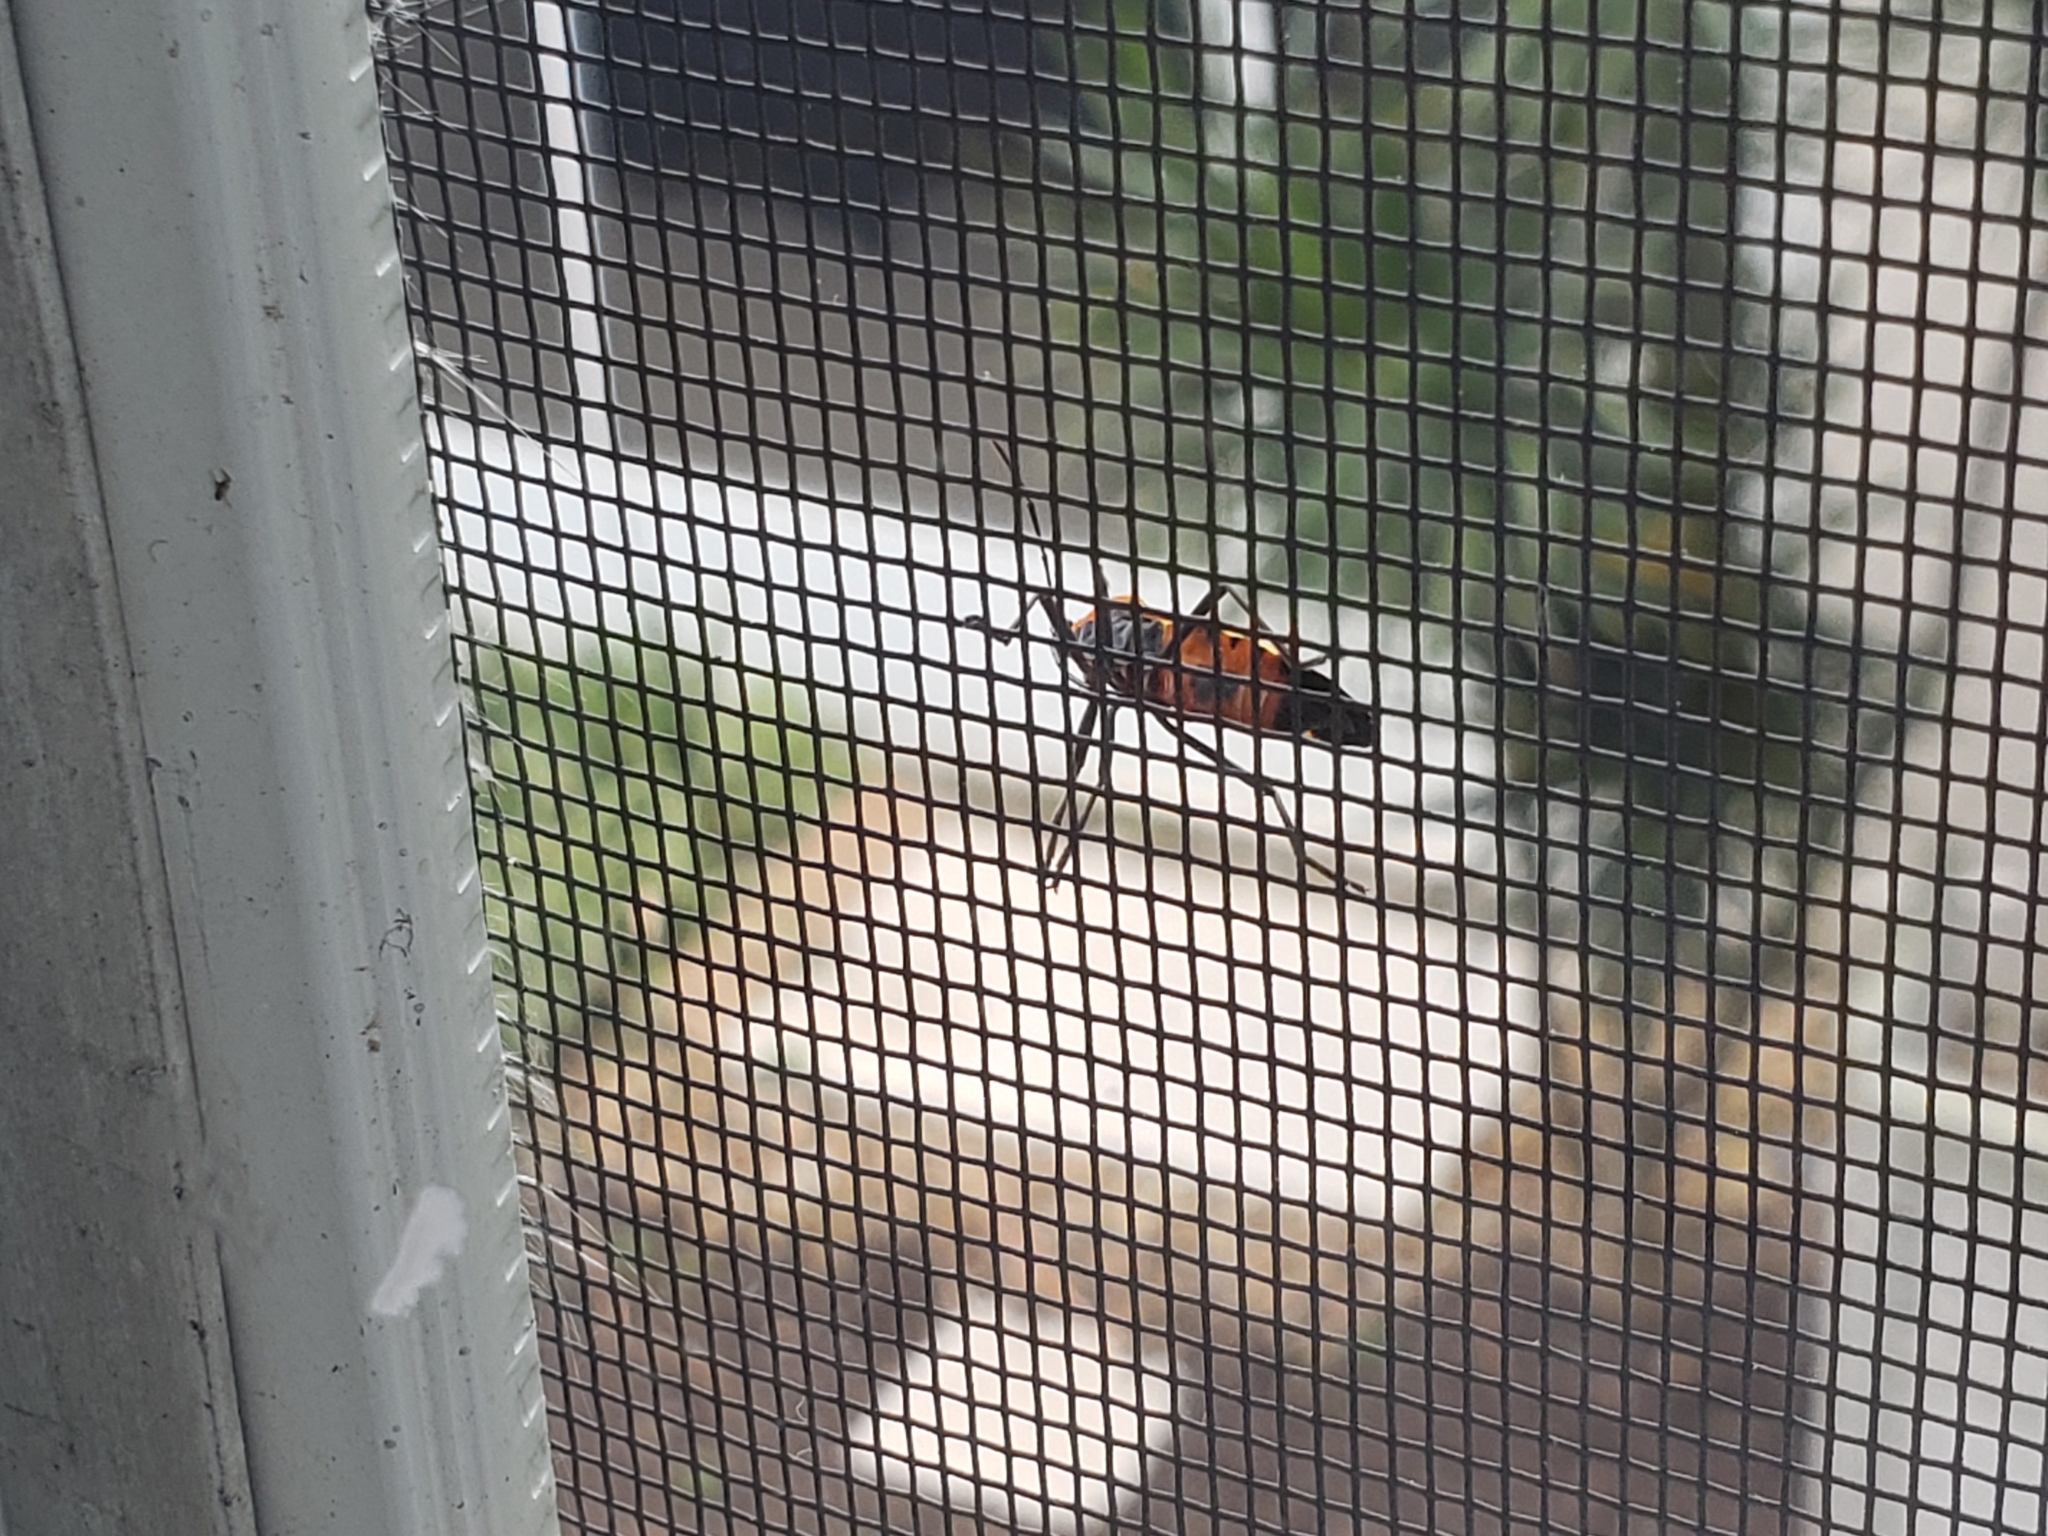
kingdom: Animalia
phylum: Arthropoda
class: Insecta
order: Hemiptera
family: Lygaeidae
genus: Oncopeltus
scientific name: Oncopeltus fasciatus
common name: Large milkweed bug
